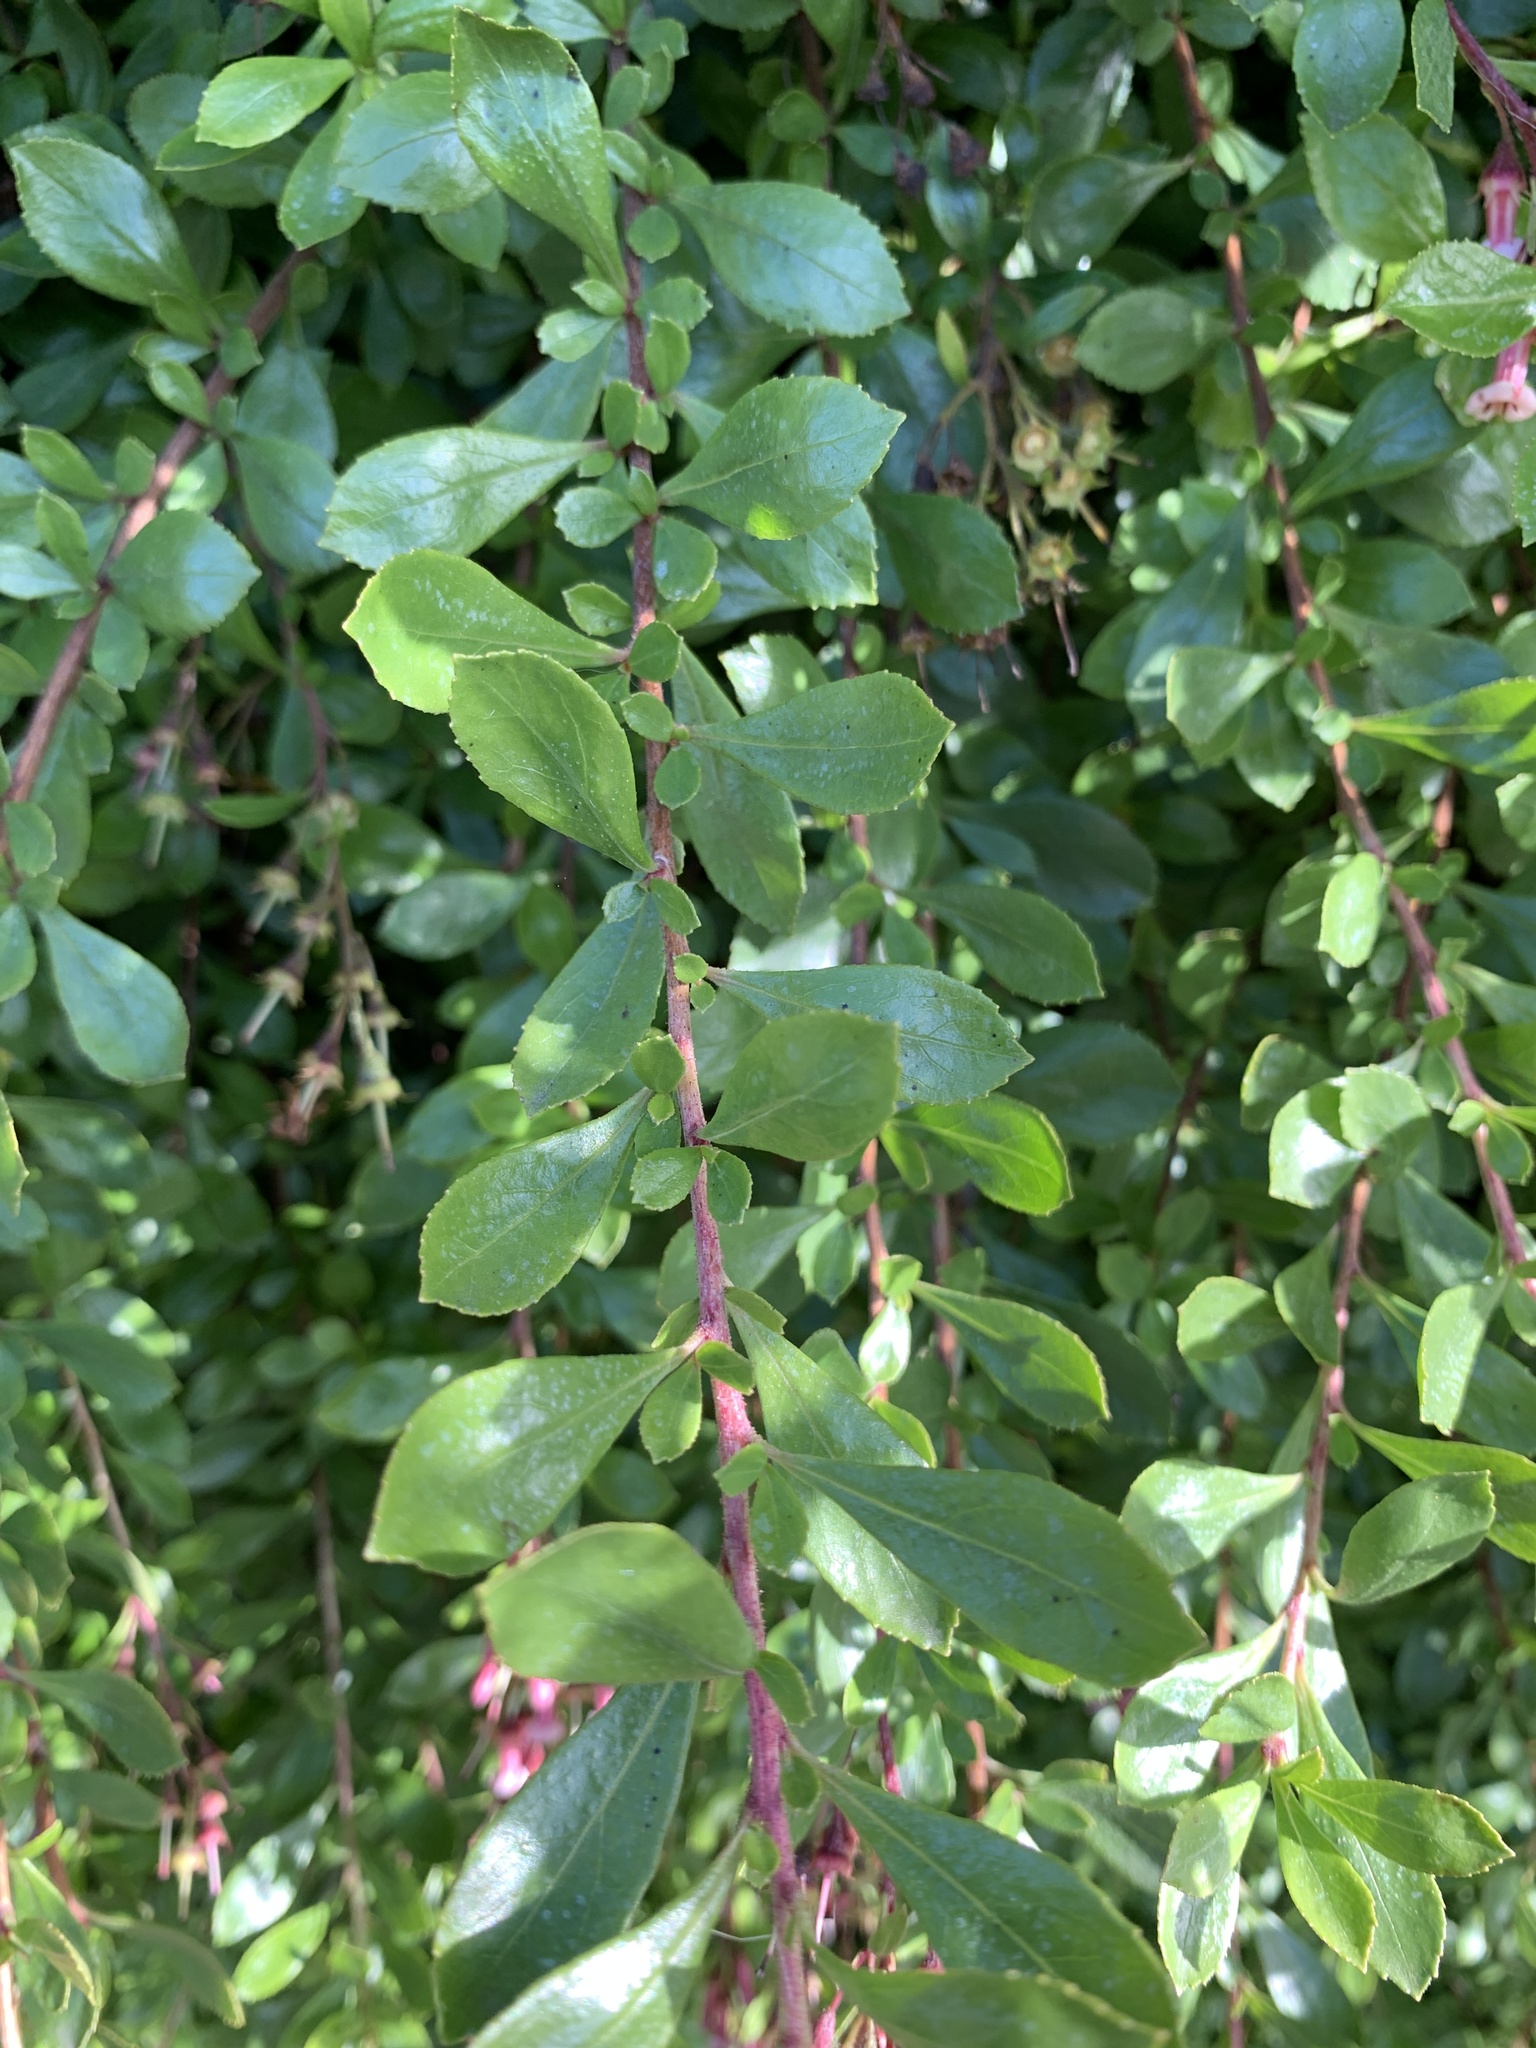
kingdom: Plantae
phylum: Tracheophyta
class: Magnoliopsida
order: Escalloniales
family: Escalloniaceae
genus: Escallonia
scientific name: Escallonia rubra
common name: Redclaws
